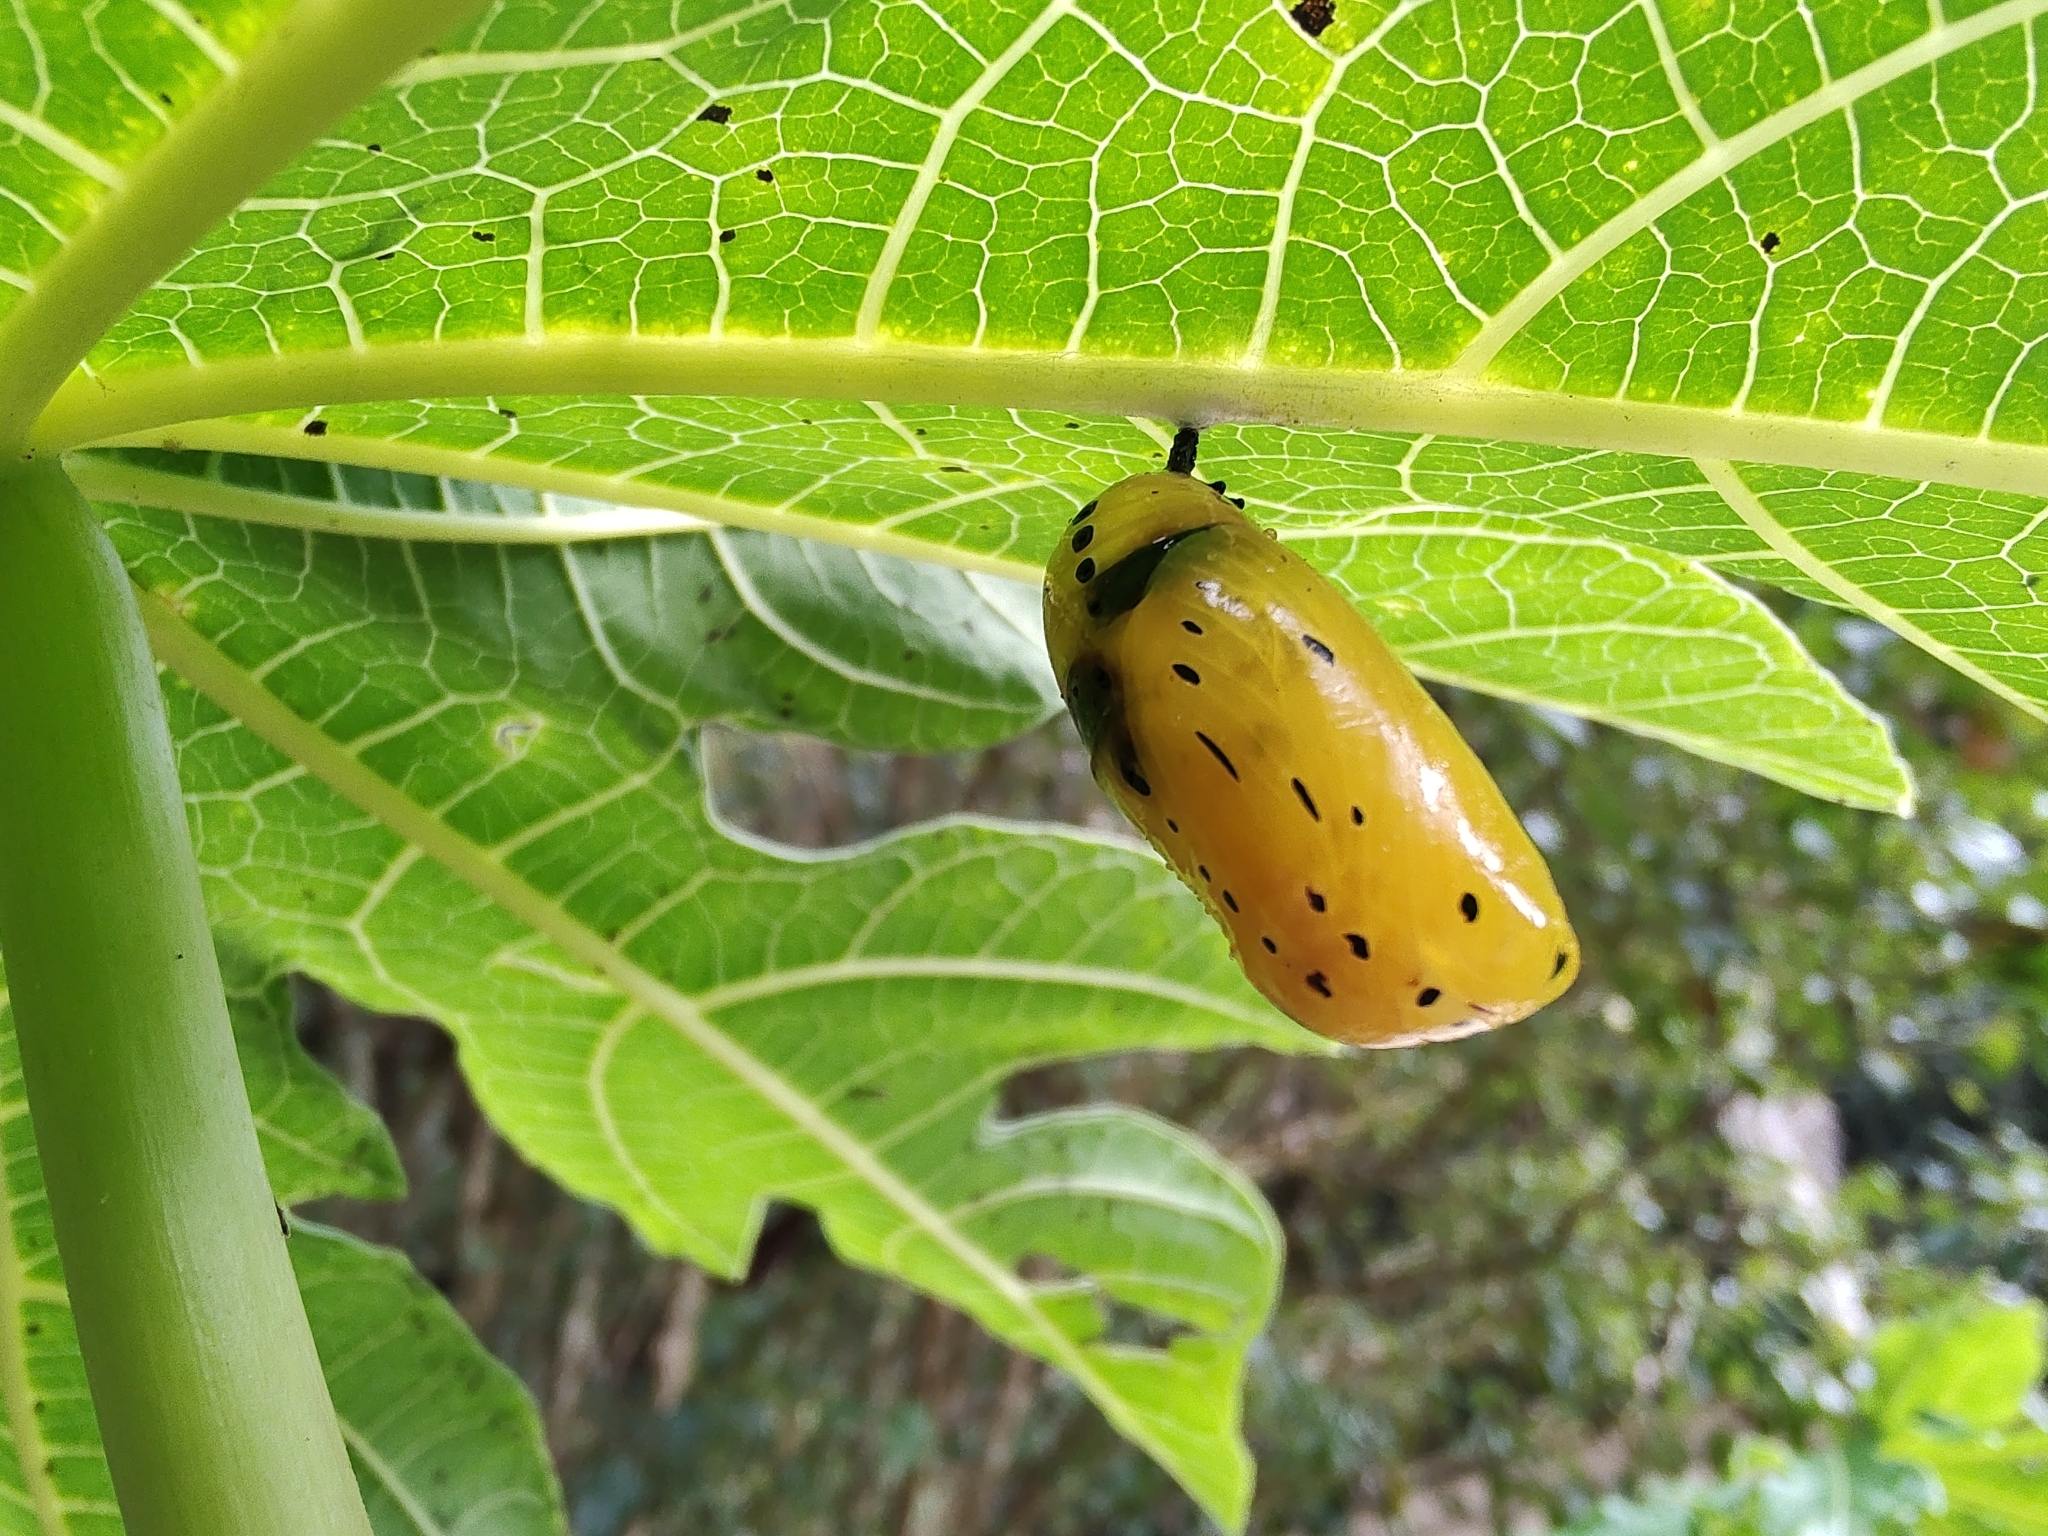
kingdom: Animalia
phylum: Arthropoda
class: Insecta
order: Lepidoptera
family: Nymphalidae
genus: Lycorea
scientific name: Lycorea cleobaea
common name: Tiger mimic-queen
